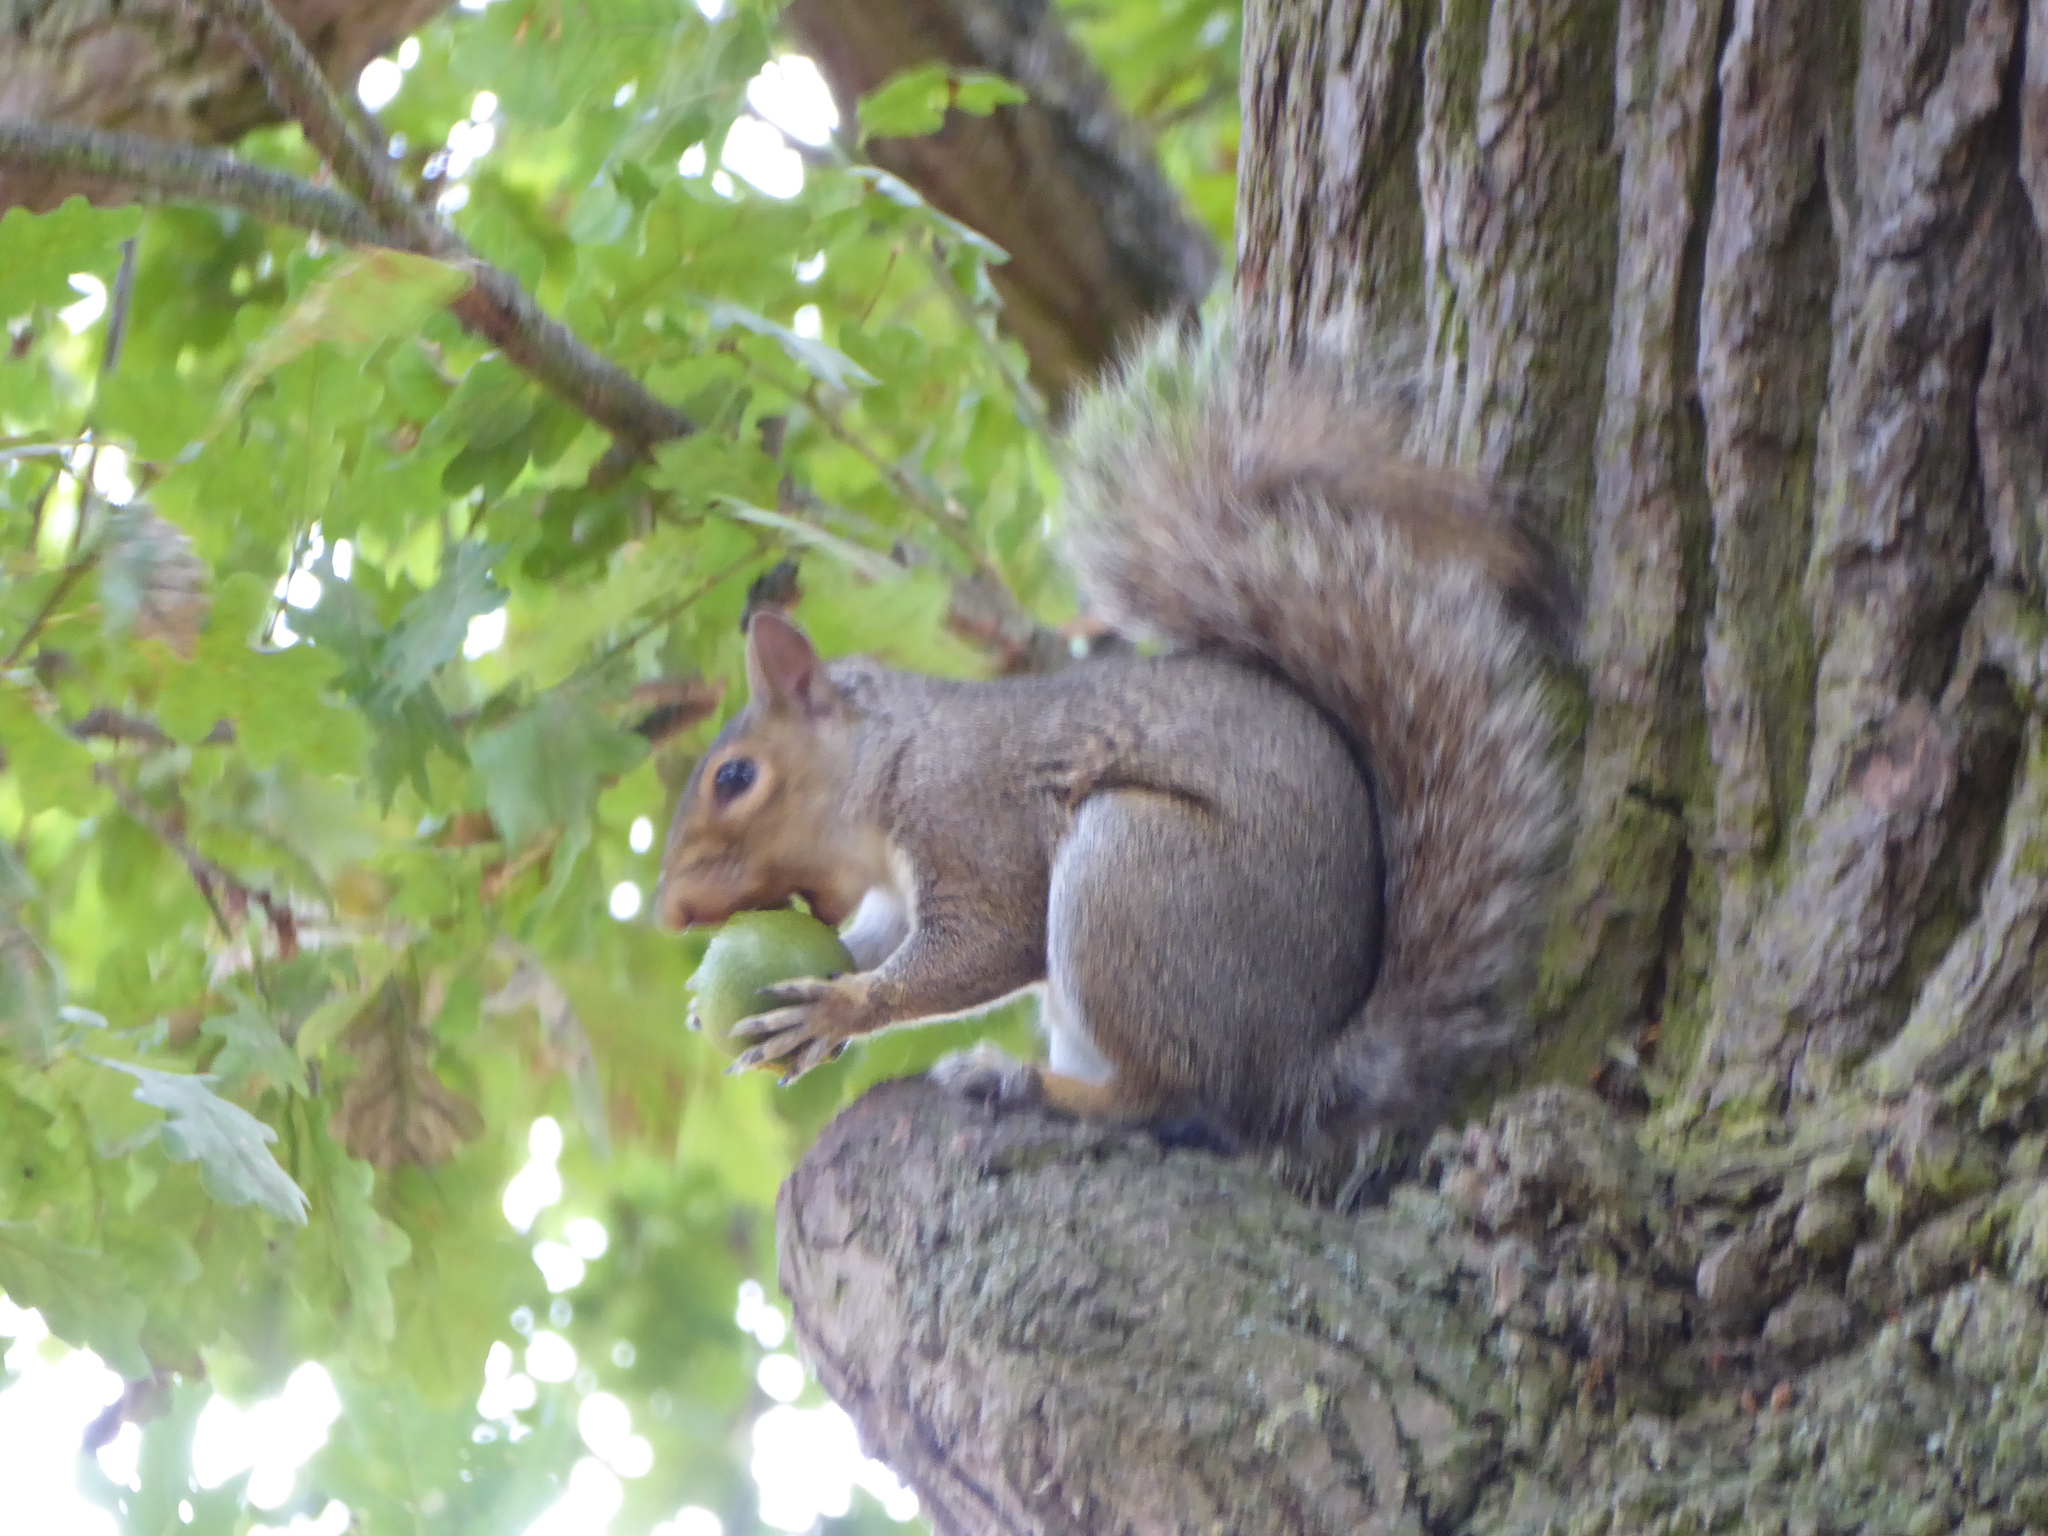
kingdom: Animalia
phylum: Chordata
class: Mammalia
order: Rodentia
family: Sciuridae
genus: Sciurus
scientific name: Sciurus carolinensis
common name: Eastern gray squirrel
